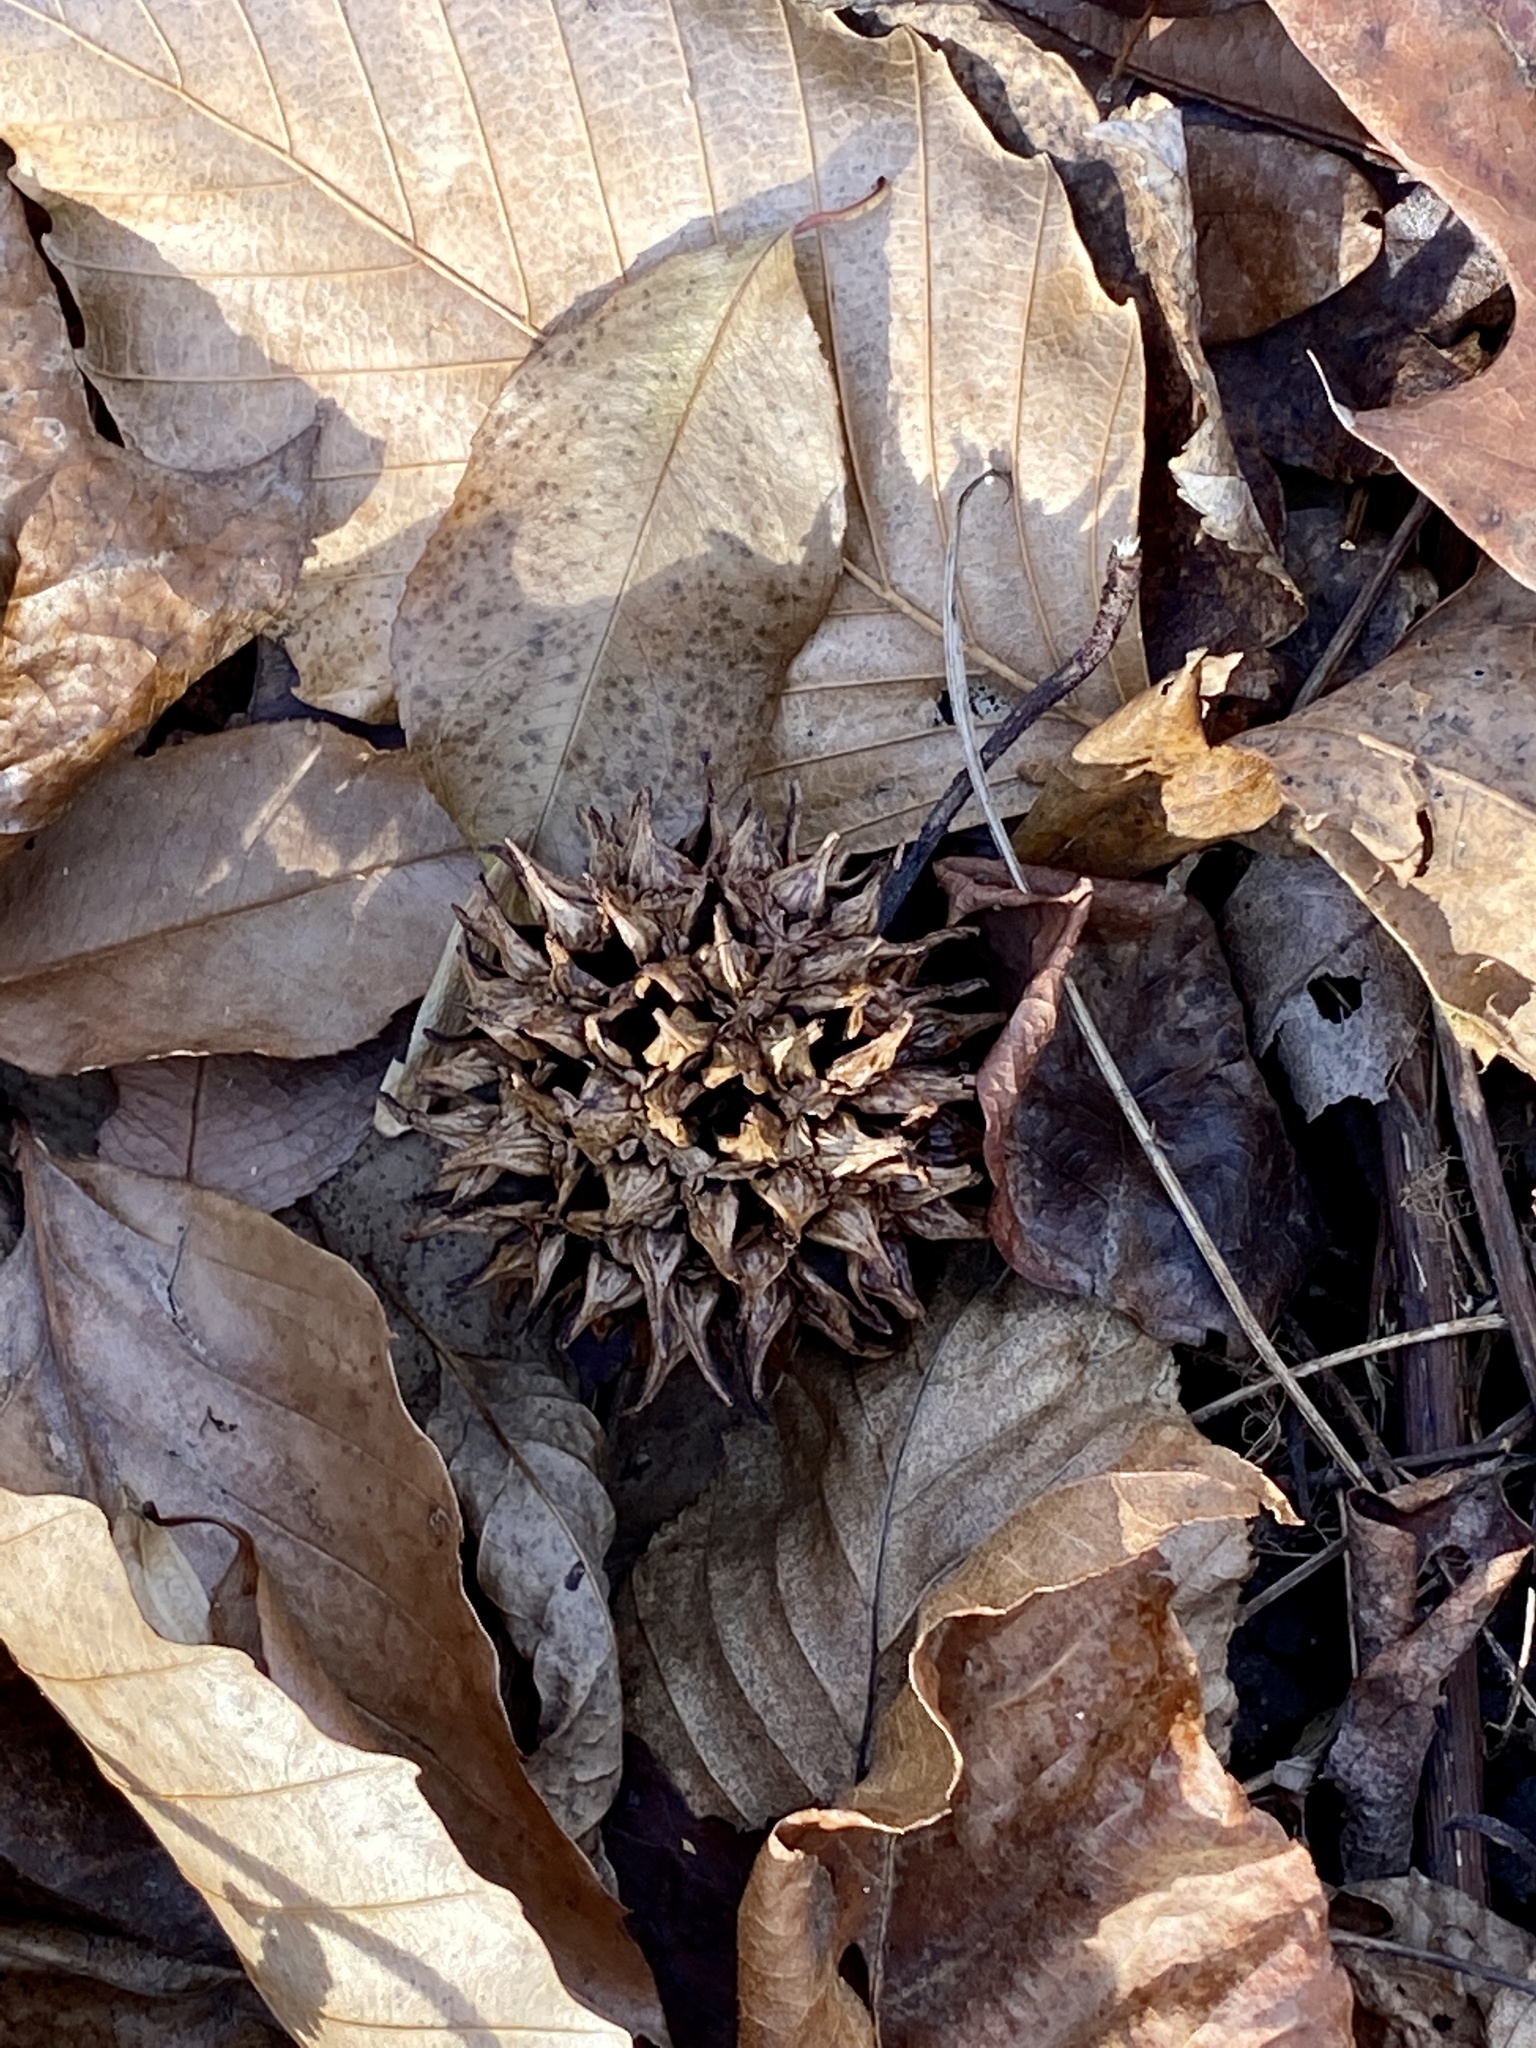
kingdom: Plantae
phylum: Tracheophyta
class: Magnoliopsida
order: Saxifragales
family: Altingiaceae
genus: Liquidambar
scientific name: Liquidambar styraciflua
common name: Sweet gum
